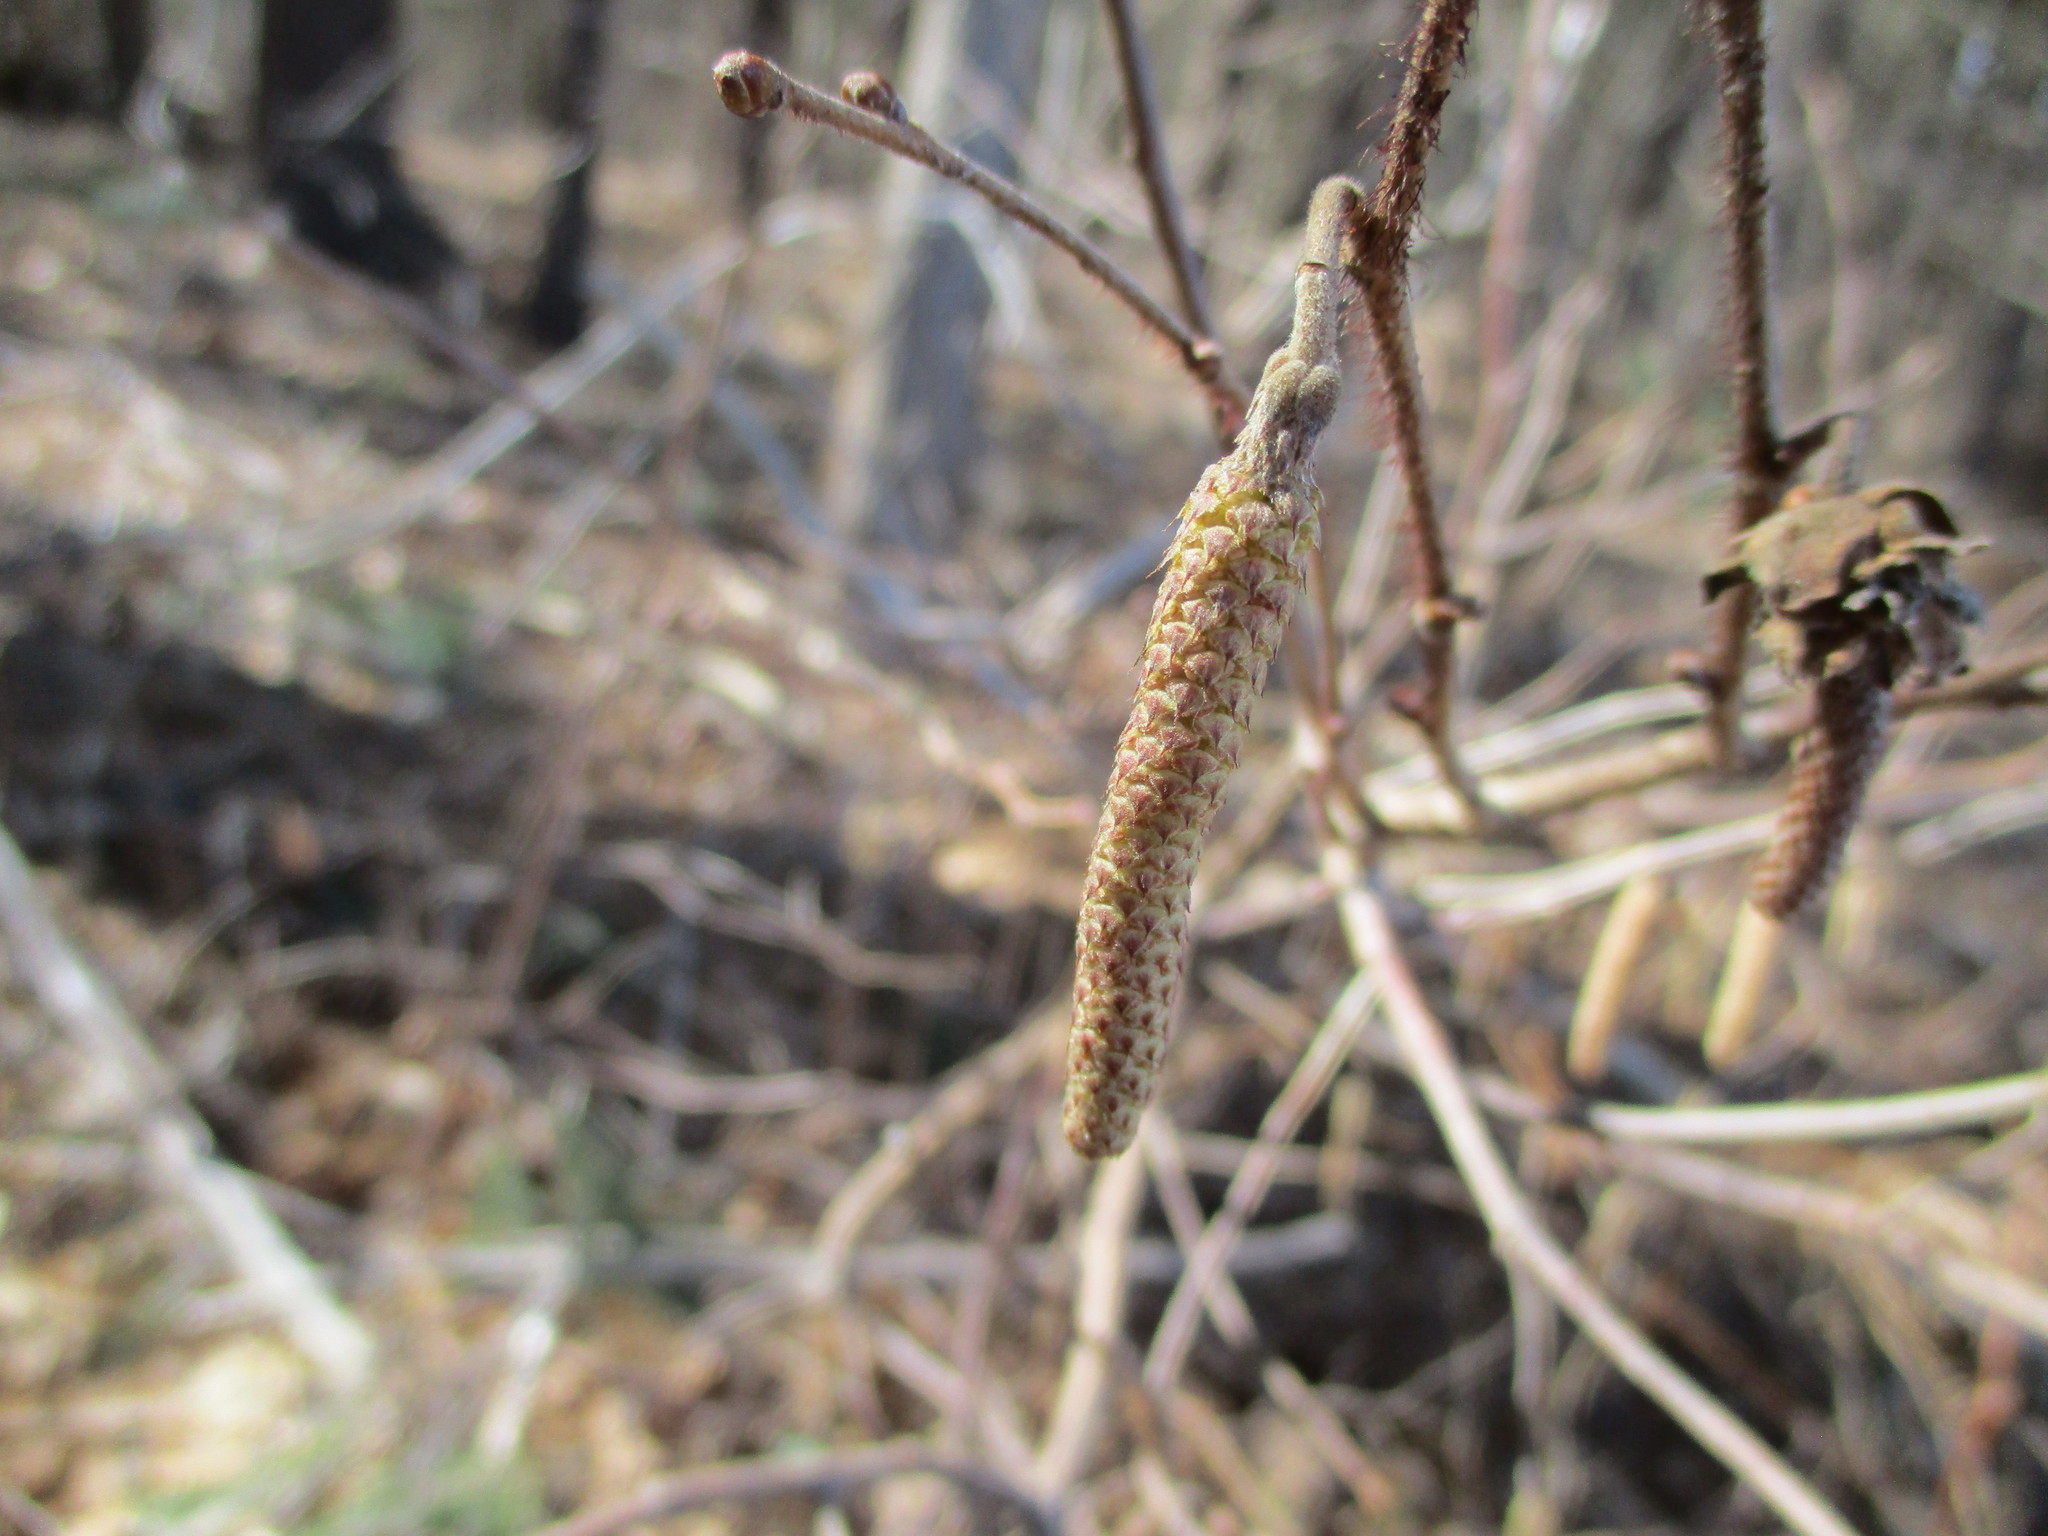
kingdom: Plantae
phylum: Tracheophyta
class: Magnoliopsida
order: Fagales
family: Betulaceae
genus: Corylus
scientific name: Corylus americana
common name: American hazel
